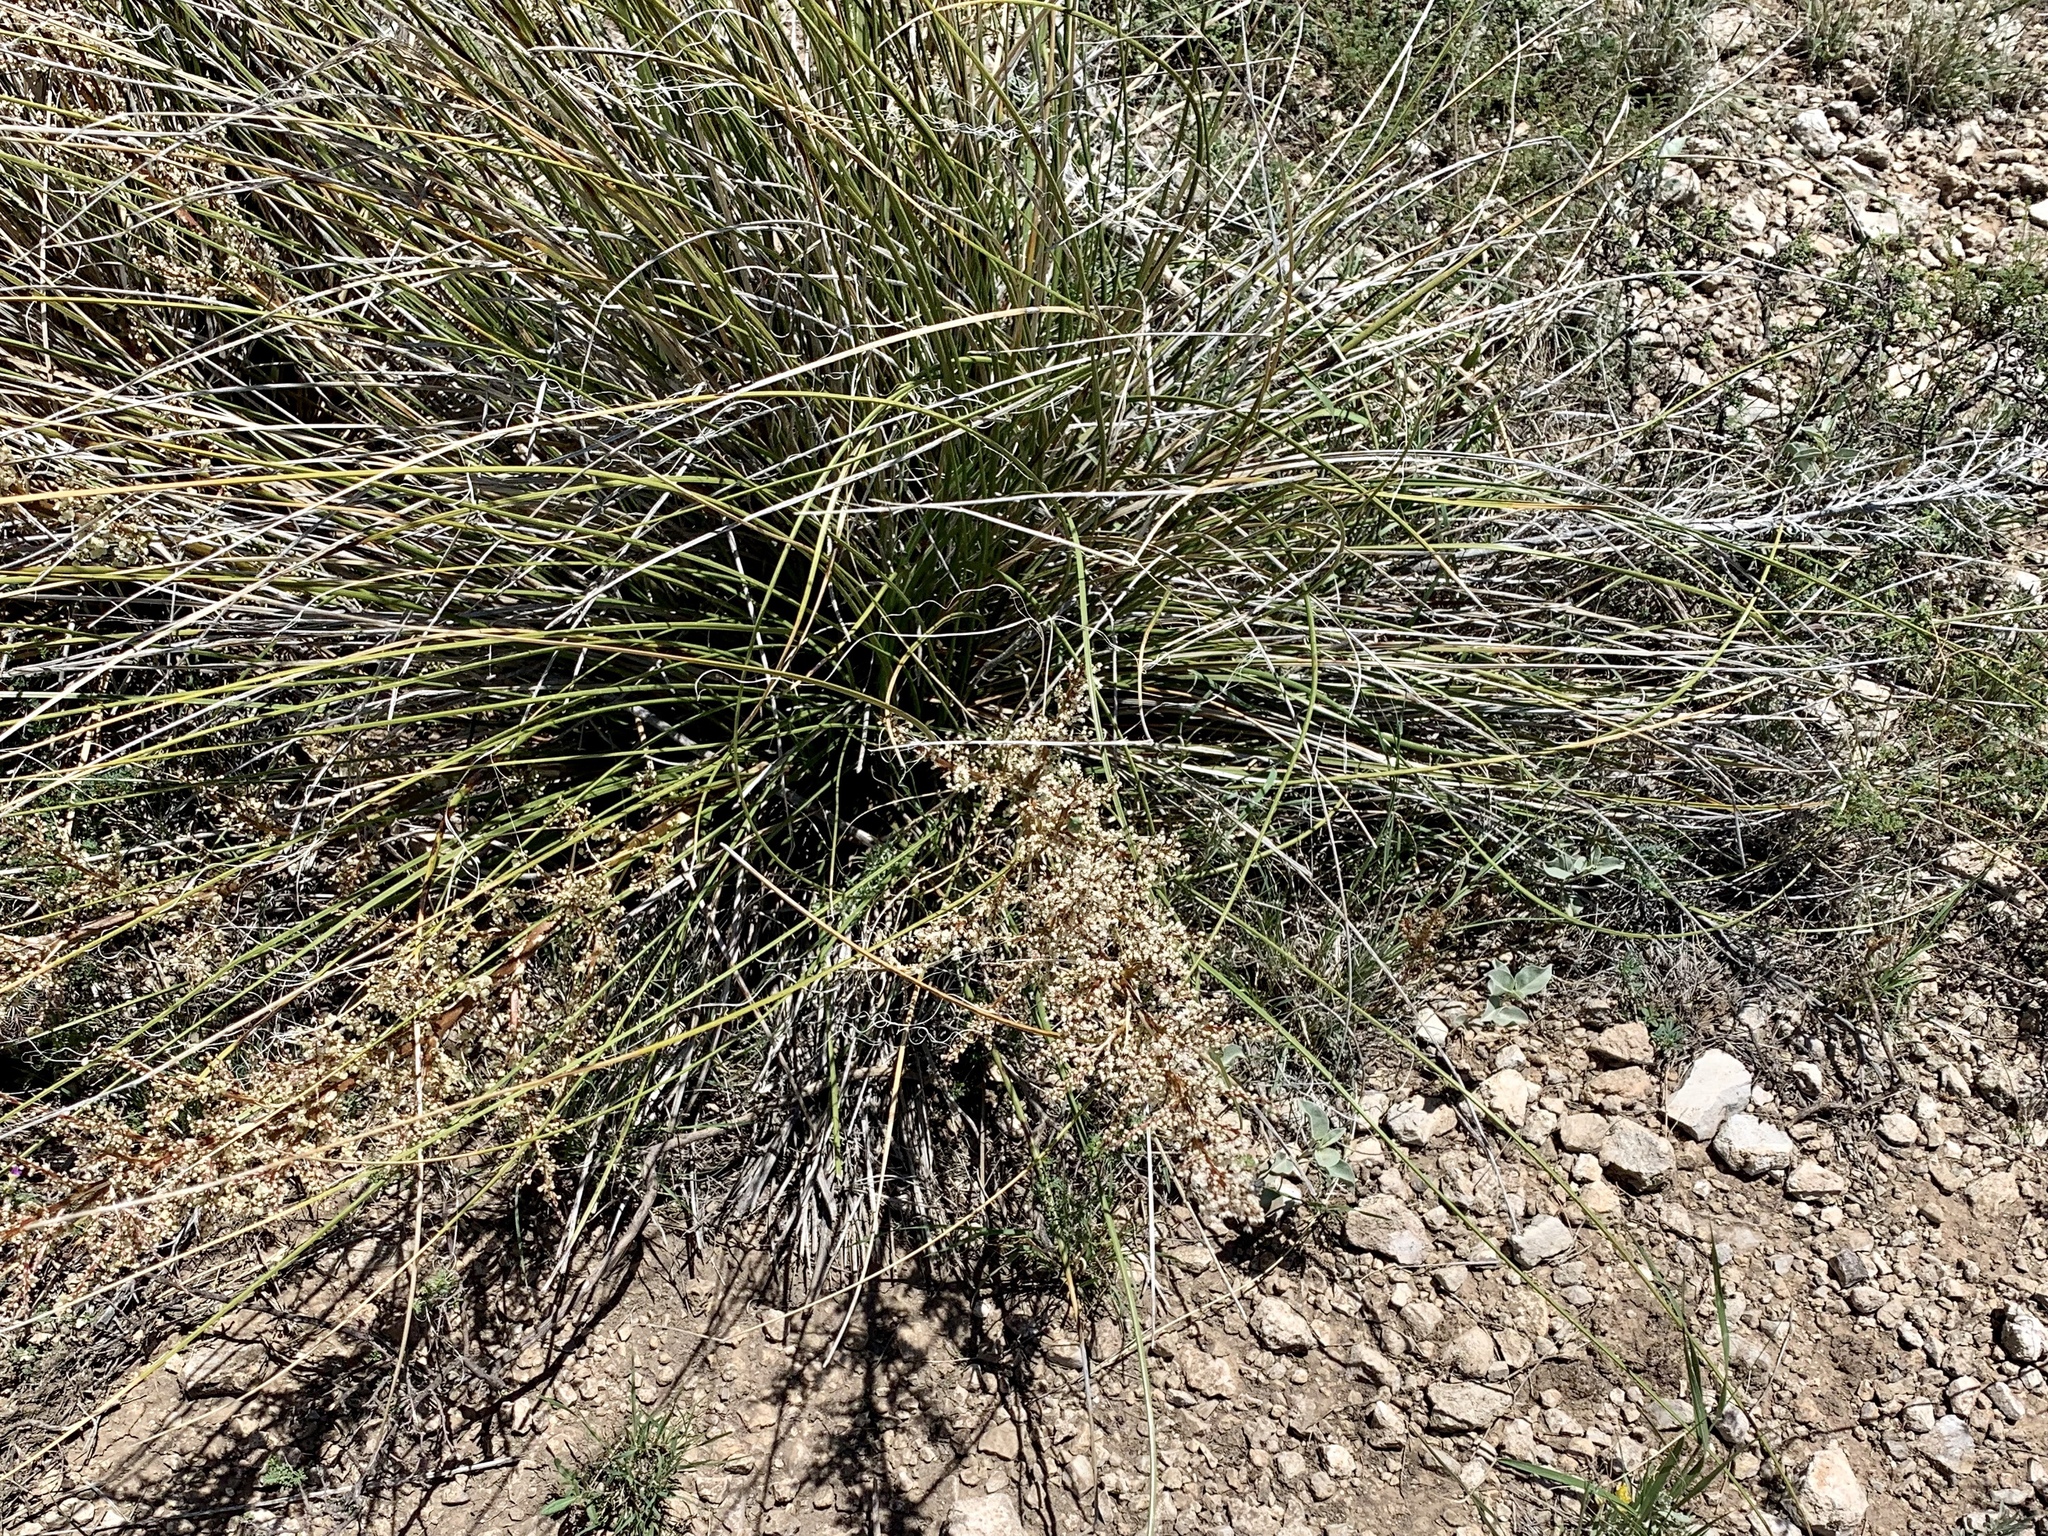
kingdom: Plantae
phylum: Tracheophyta
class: Liliopsida
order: Asparagales
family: Asparagaceae
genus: Nolina
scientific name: Nolina texana
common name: Texas sacahuiste
